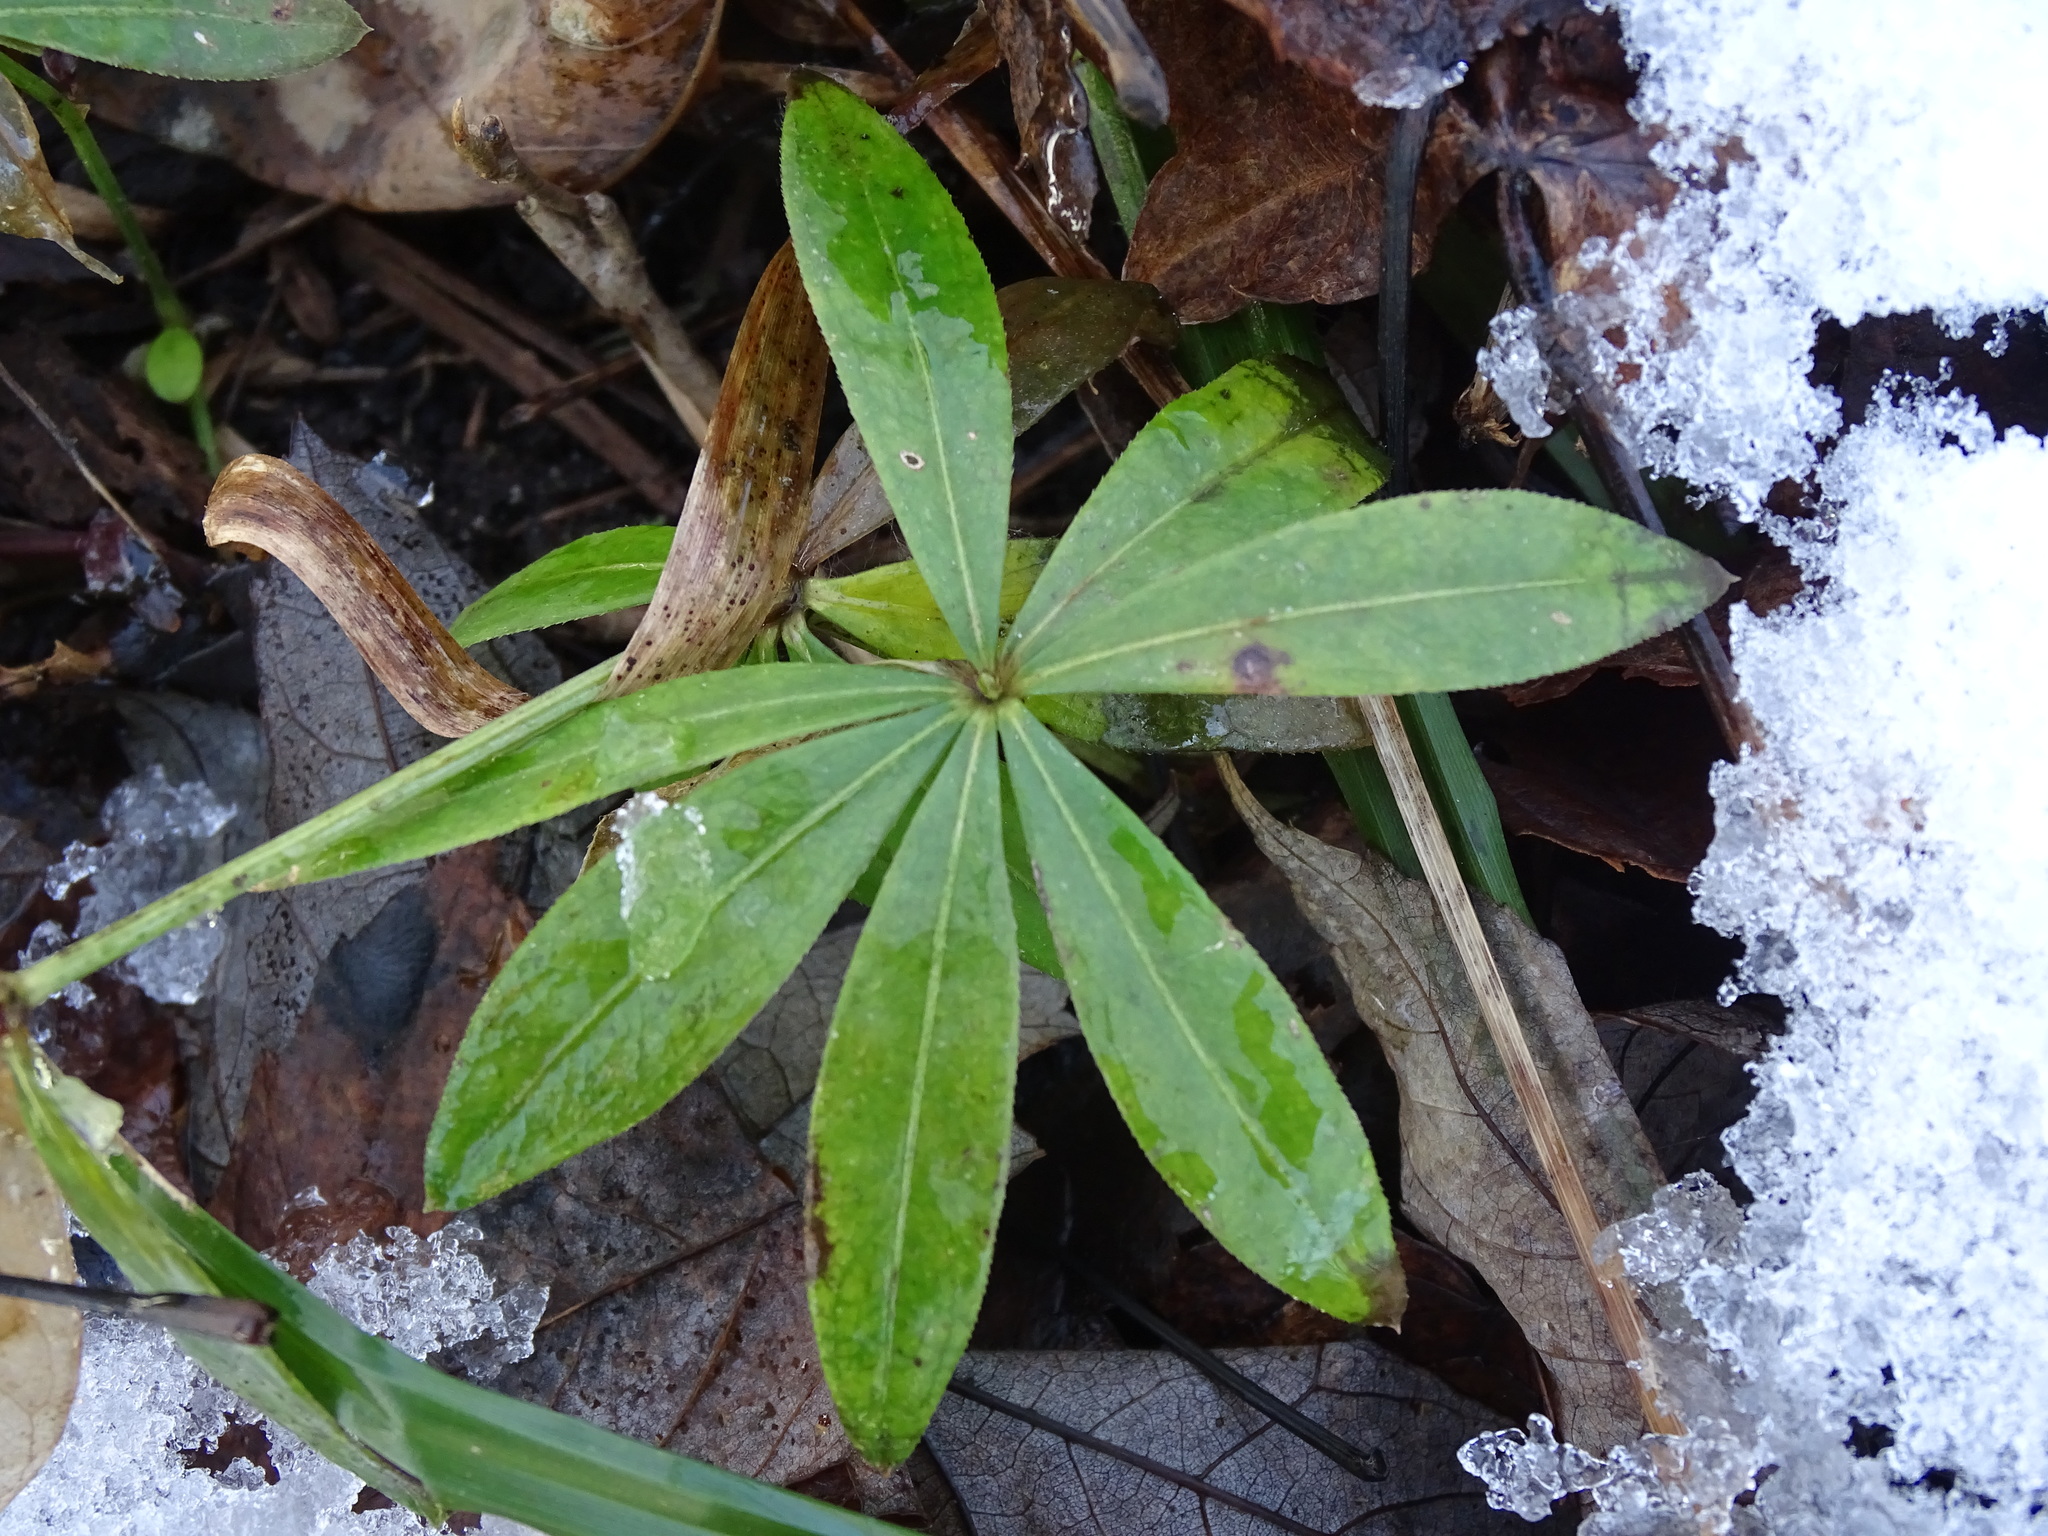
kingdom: Plantae
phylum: Tracheophyta
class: Magnoliopsida
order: Gentianales
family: Rubiaceae
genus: Galium
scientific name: Galium odoratum
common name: Sweet woodruff
